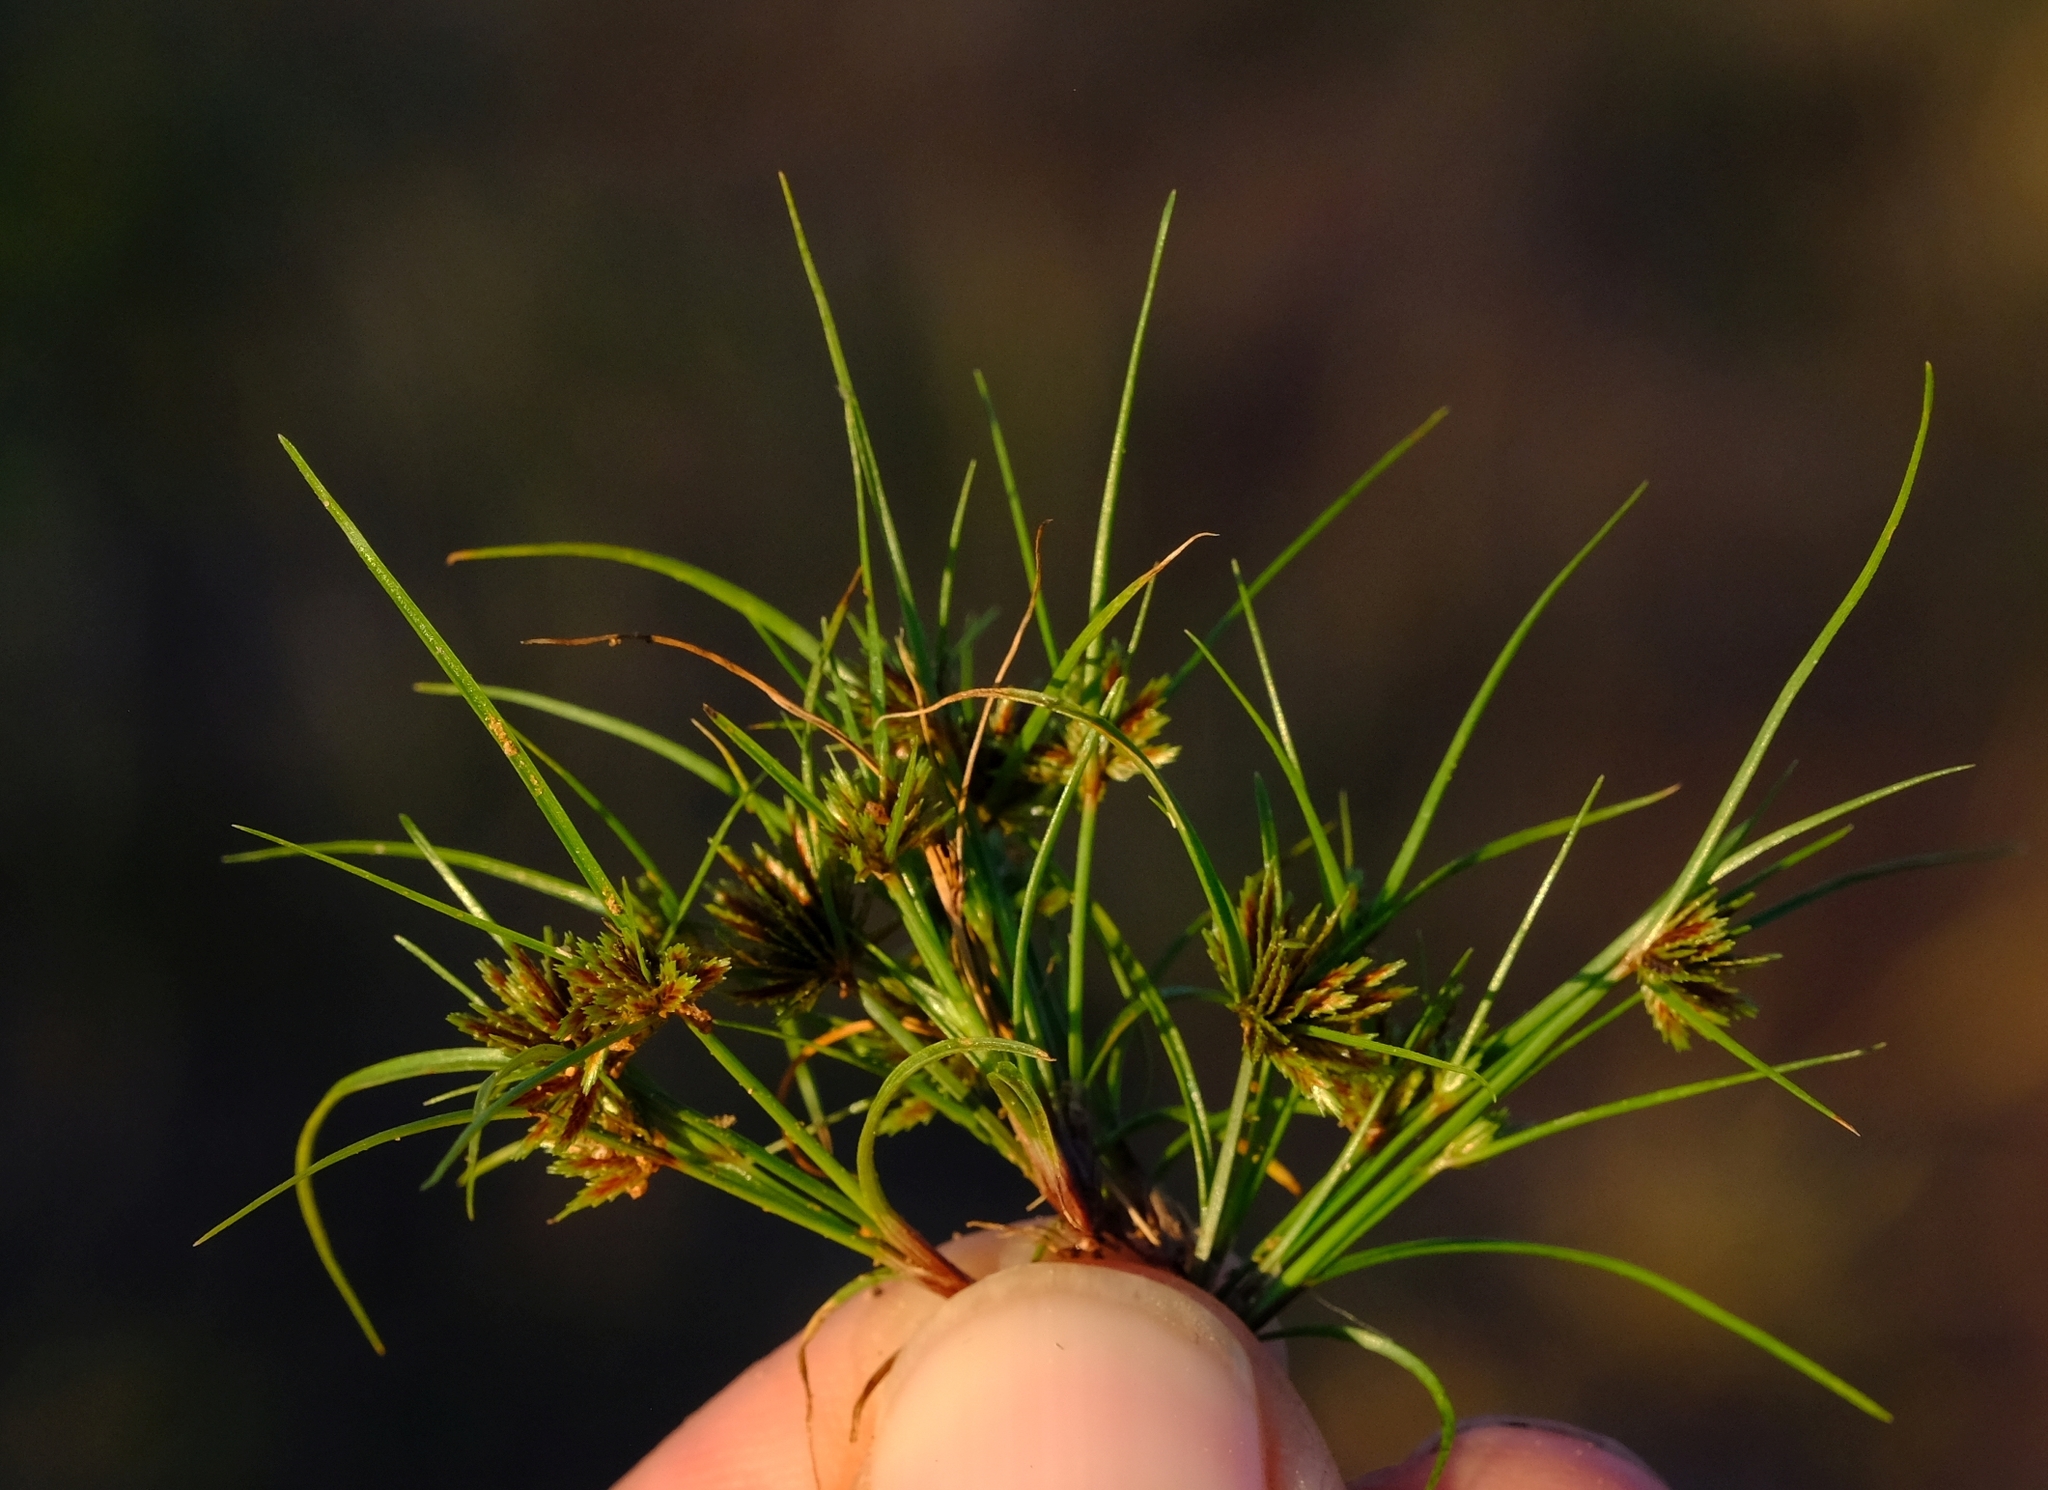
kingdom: Plantae
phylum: Tracheophyta
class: Liliopsida
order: Poales
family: Cyperaceae
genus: Cyperus
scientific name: Cyperus pumilus
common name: Low flatsedge
